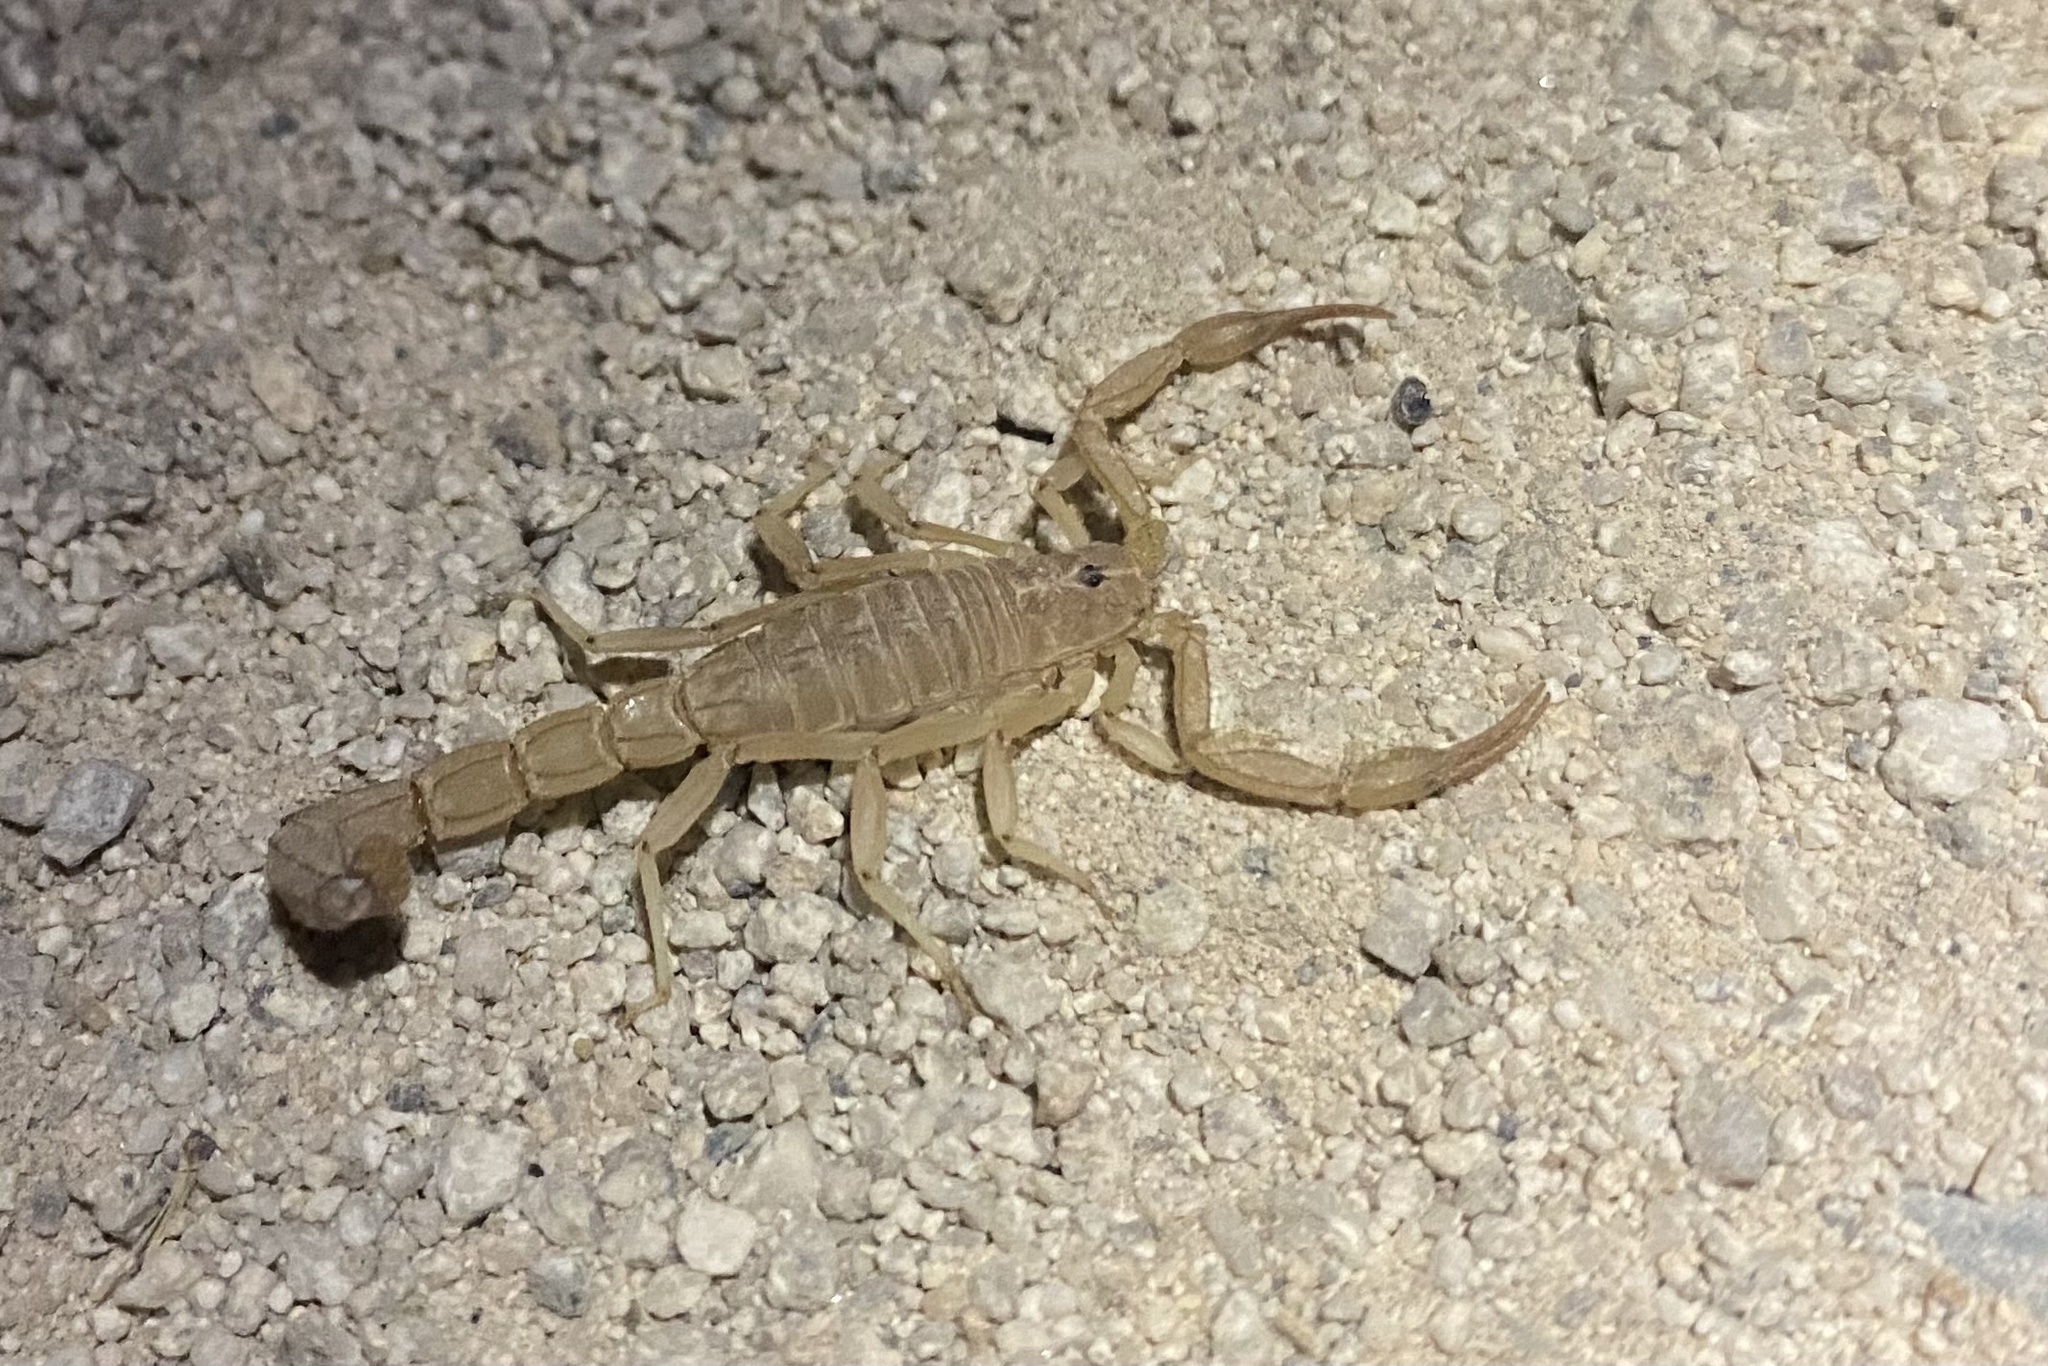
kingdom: Animalia
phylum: Arthropoda
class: Arachnida
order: Scorpiones
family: Vaejovidae
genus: Paravaejovis
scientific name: Paravaejovis confusus
